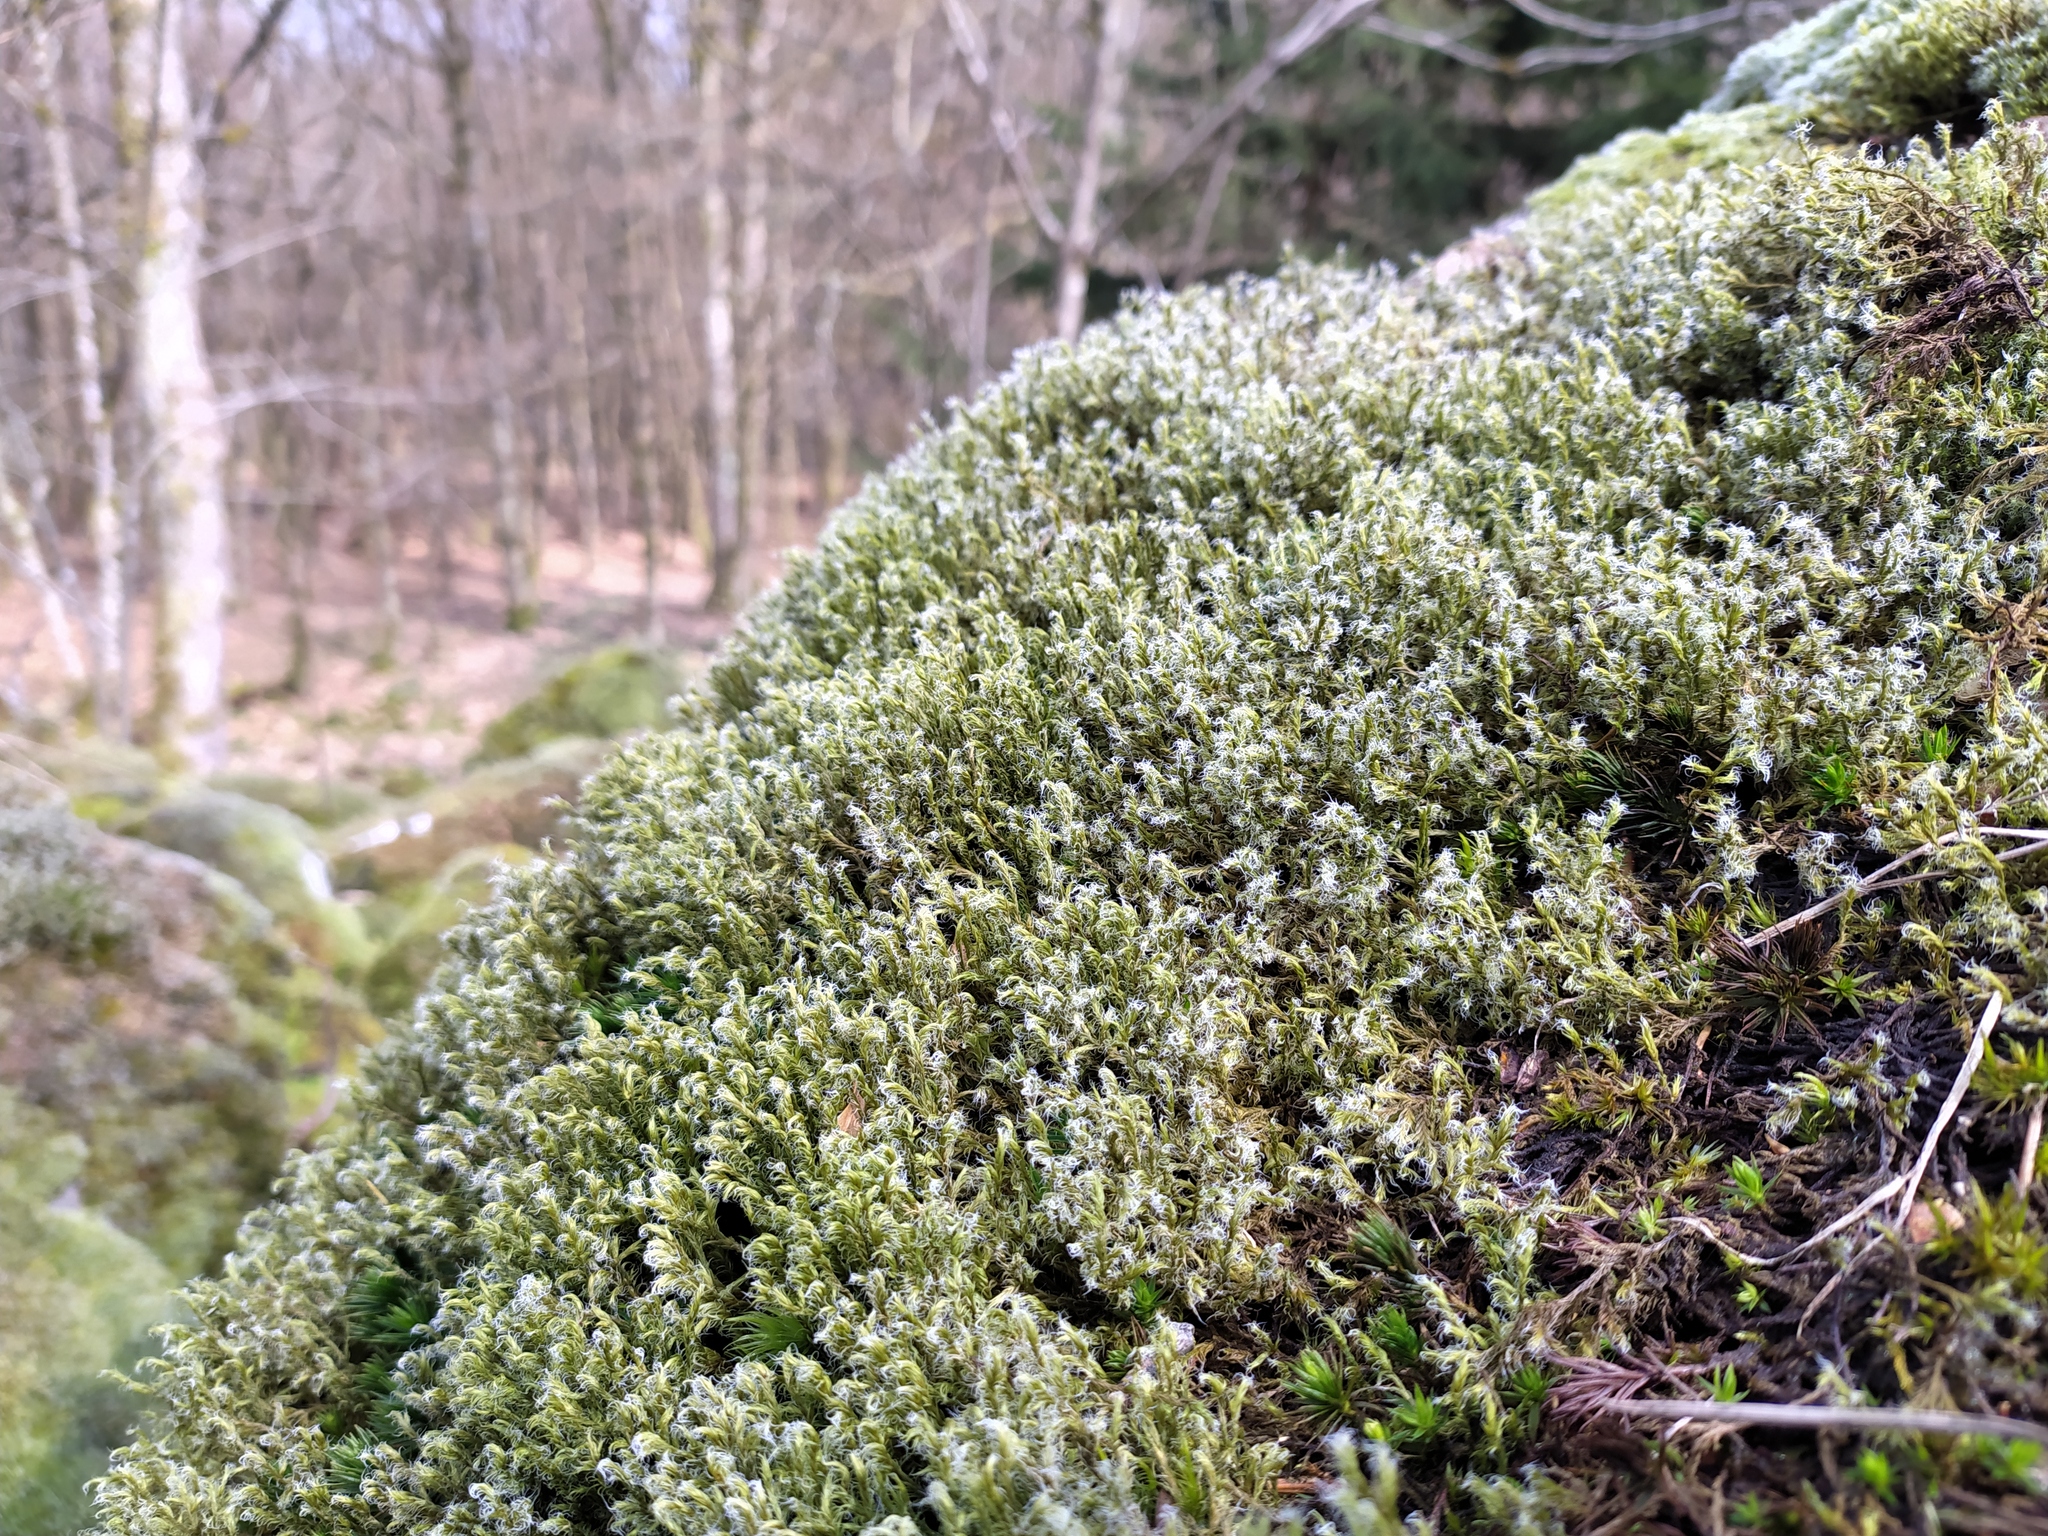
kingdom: Plantae
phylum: Bryophyta
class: Bryopsida
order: Grimmiales
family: Grimmiaceae
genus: Racomitrium
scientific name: Racomitrium lanuginosum
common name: Hoary rock moss
